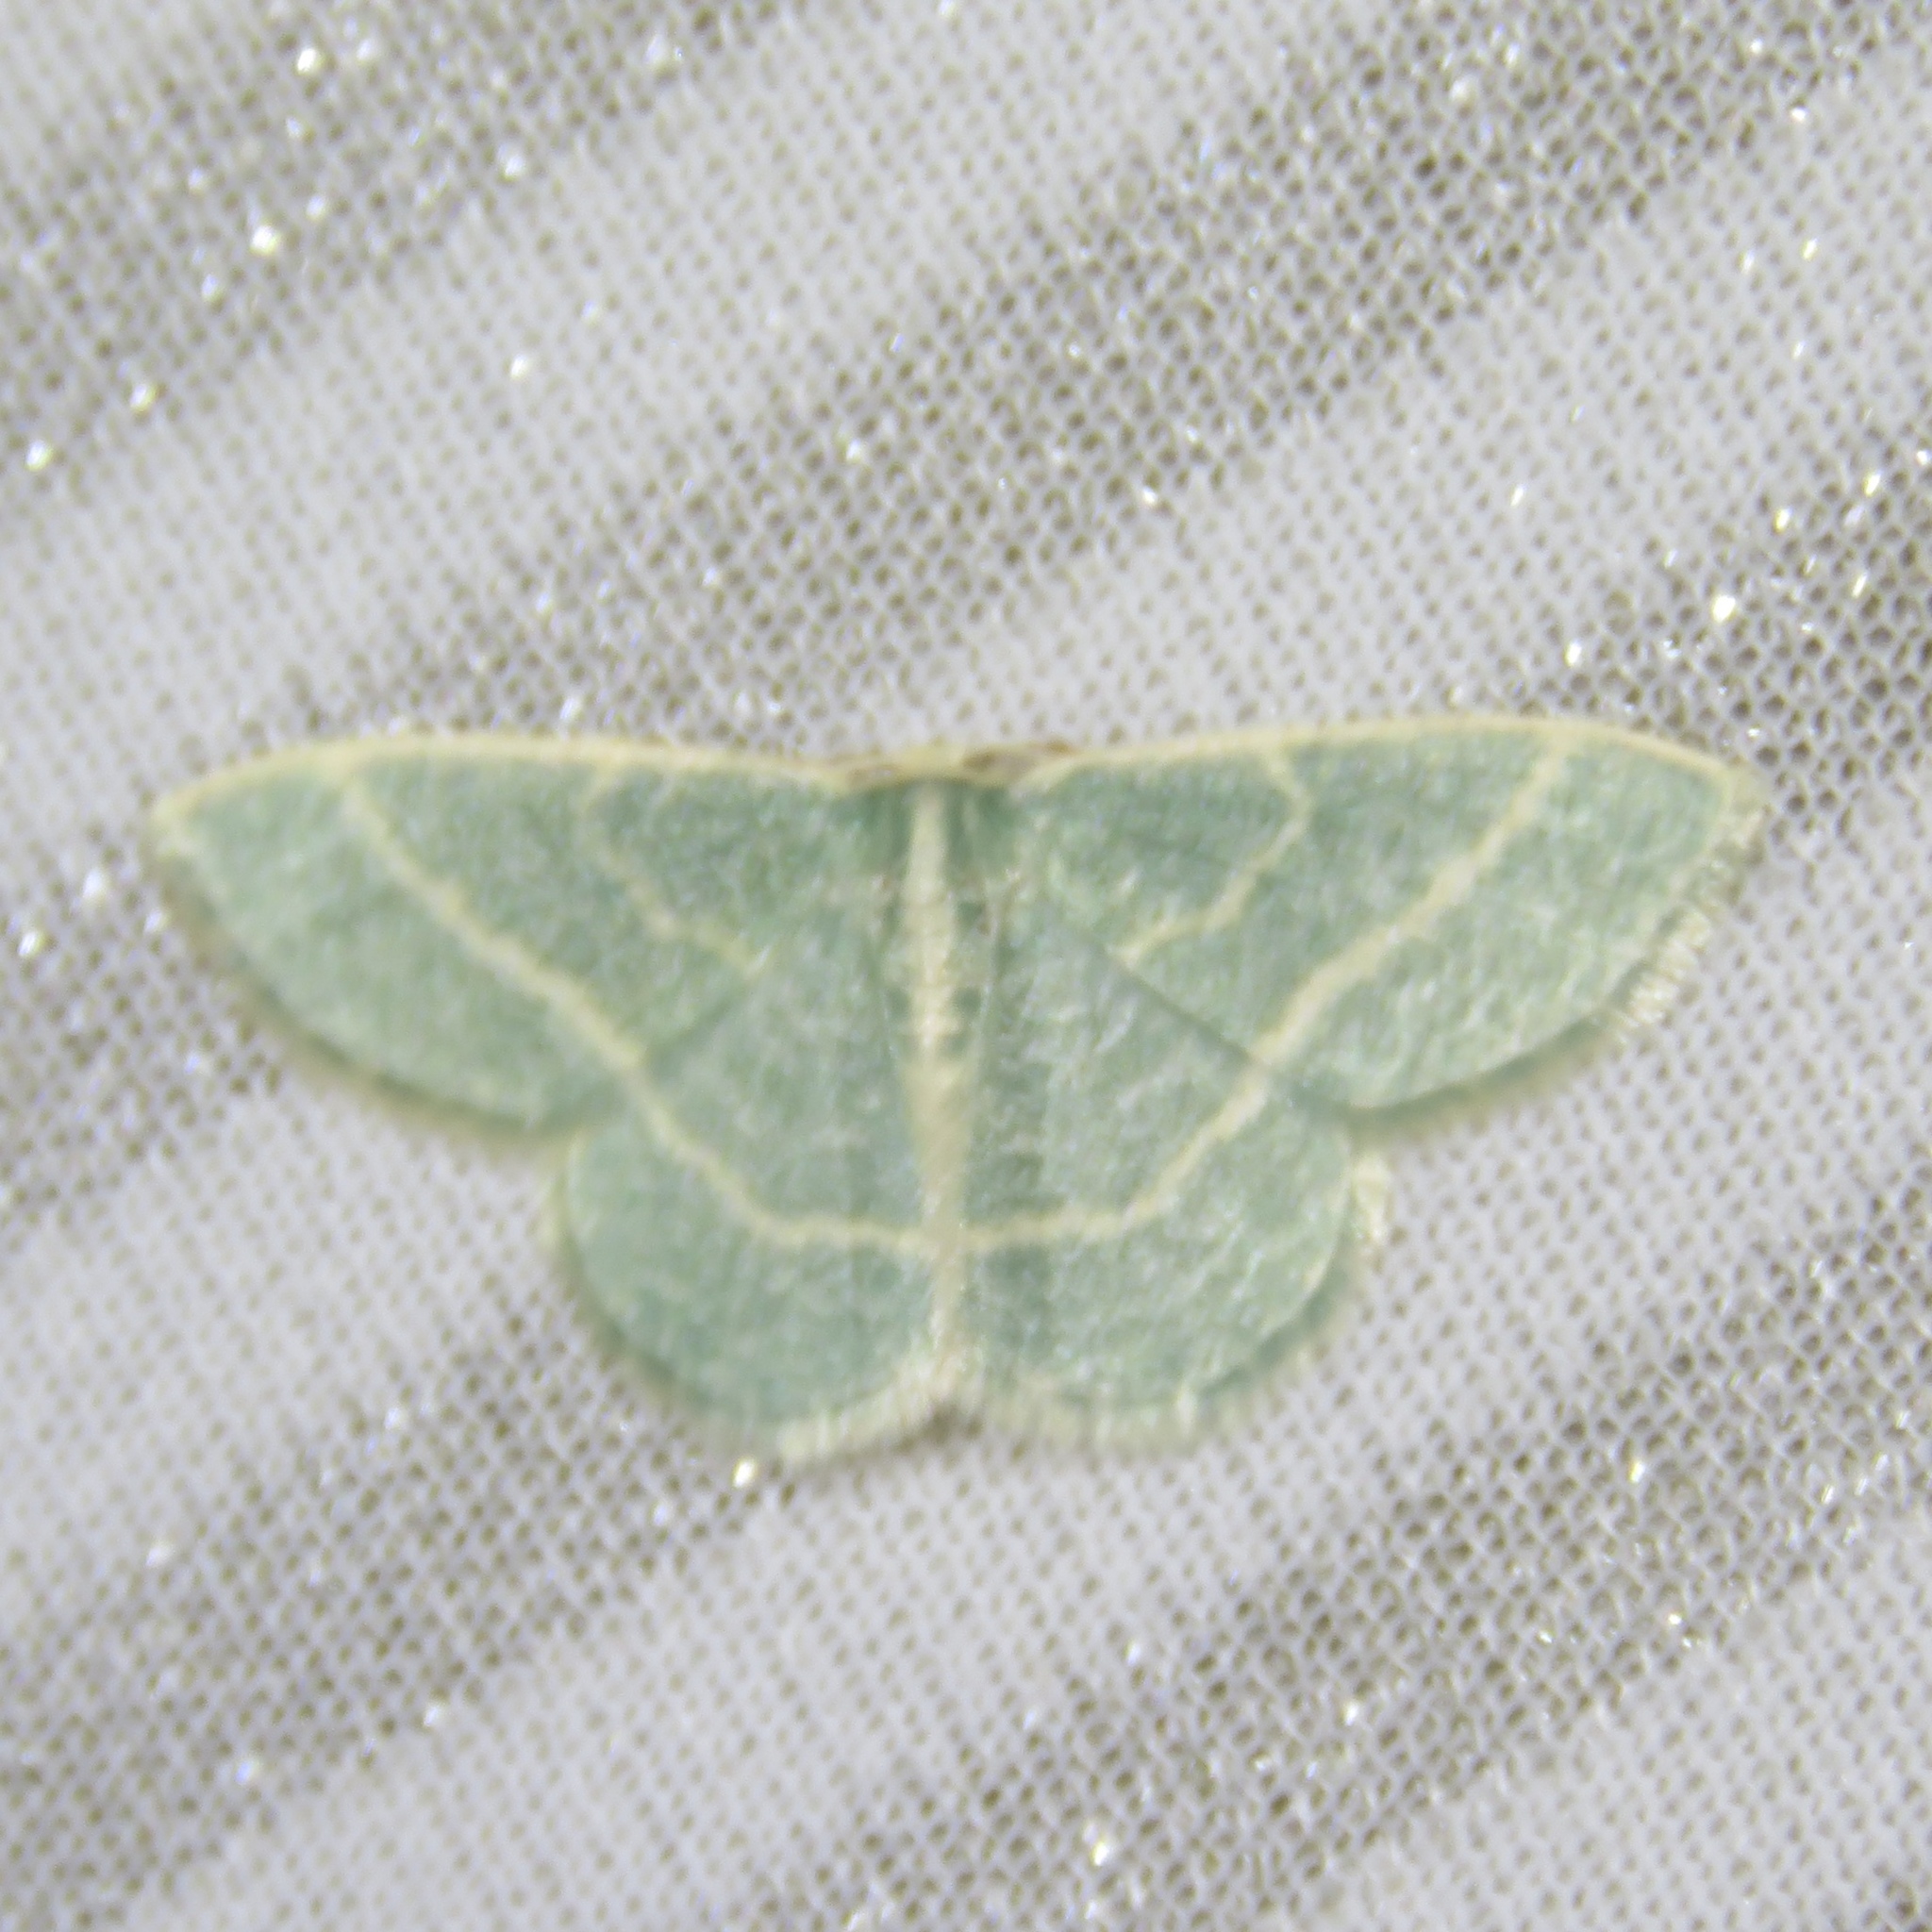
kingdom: Animalia
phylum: Arthropoda
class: Insecta
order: Lepidoptera
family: Geometridae
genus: Chlorochlamys
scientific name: Chlorochlamys chloroleucaria
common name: Blackberry looper
